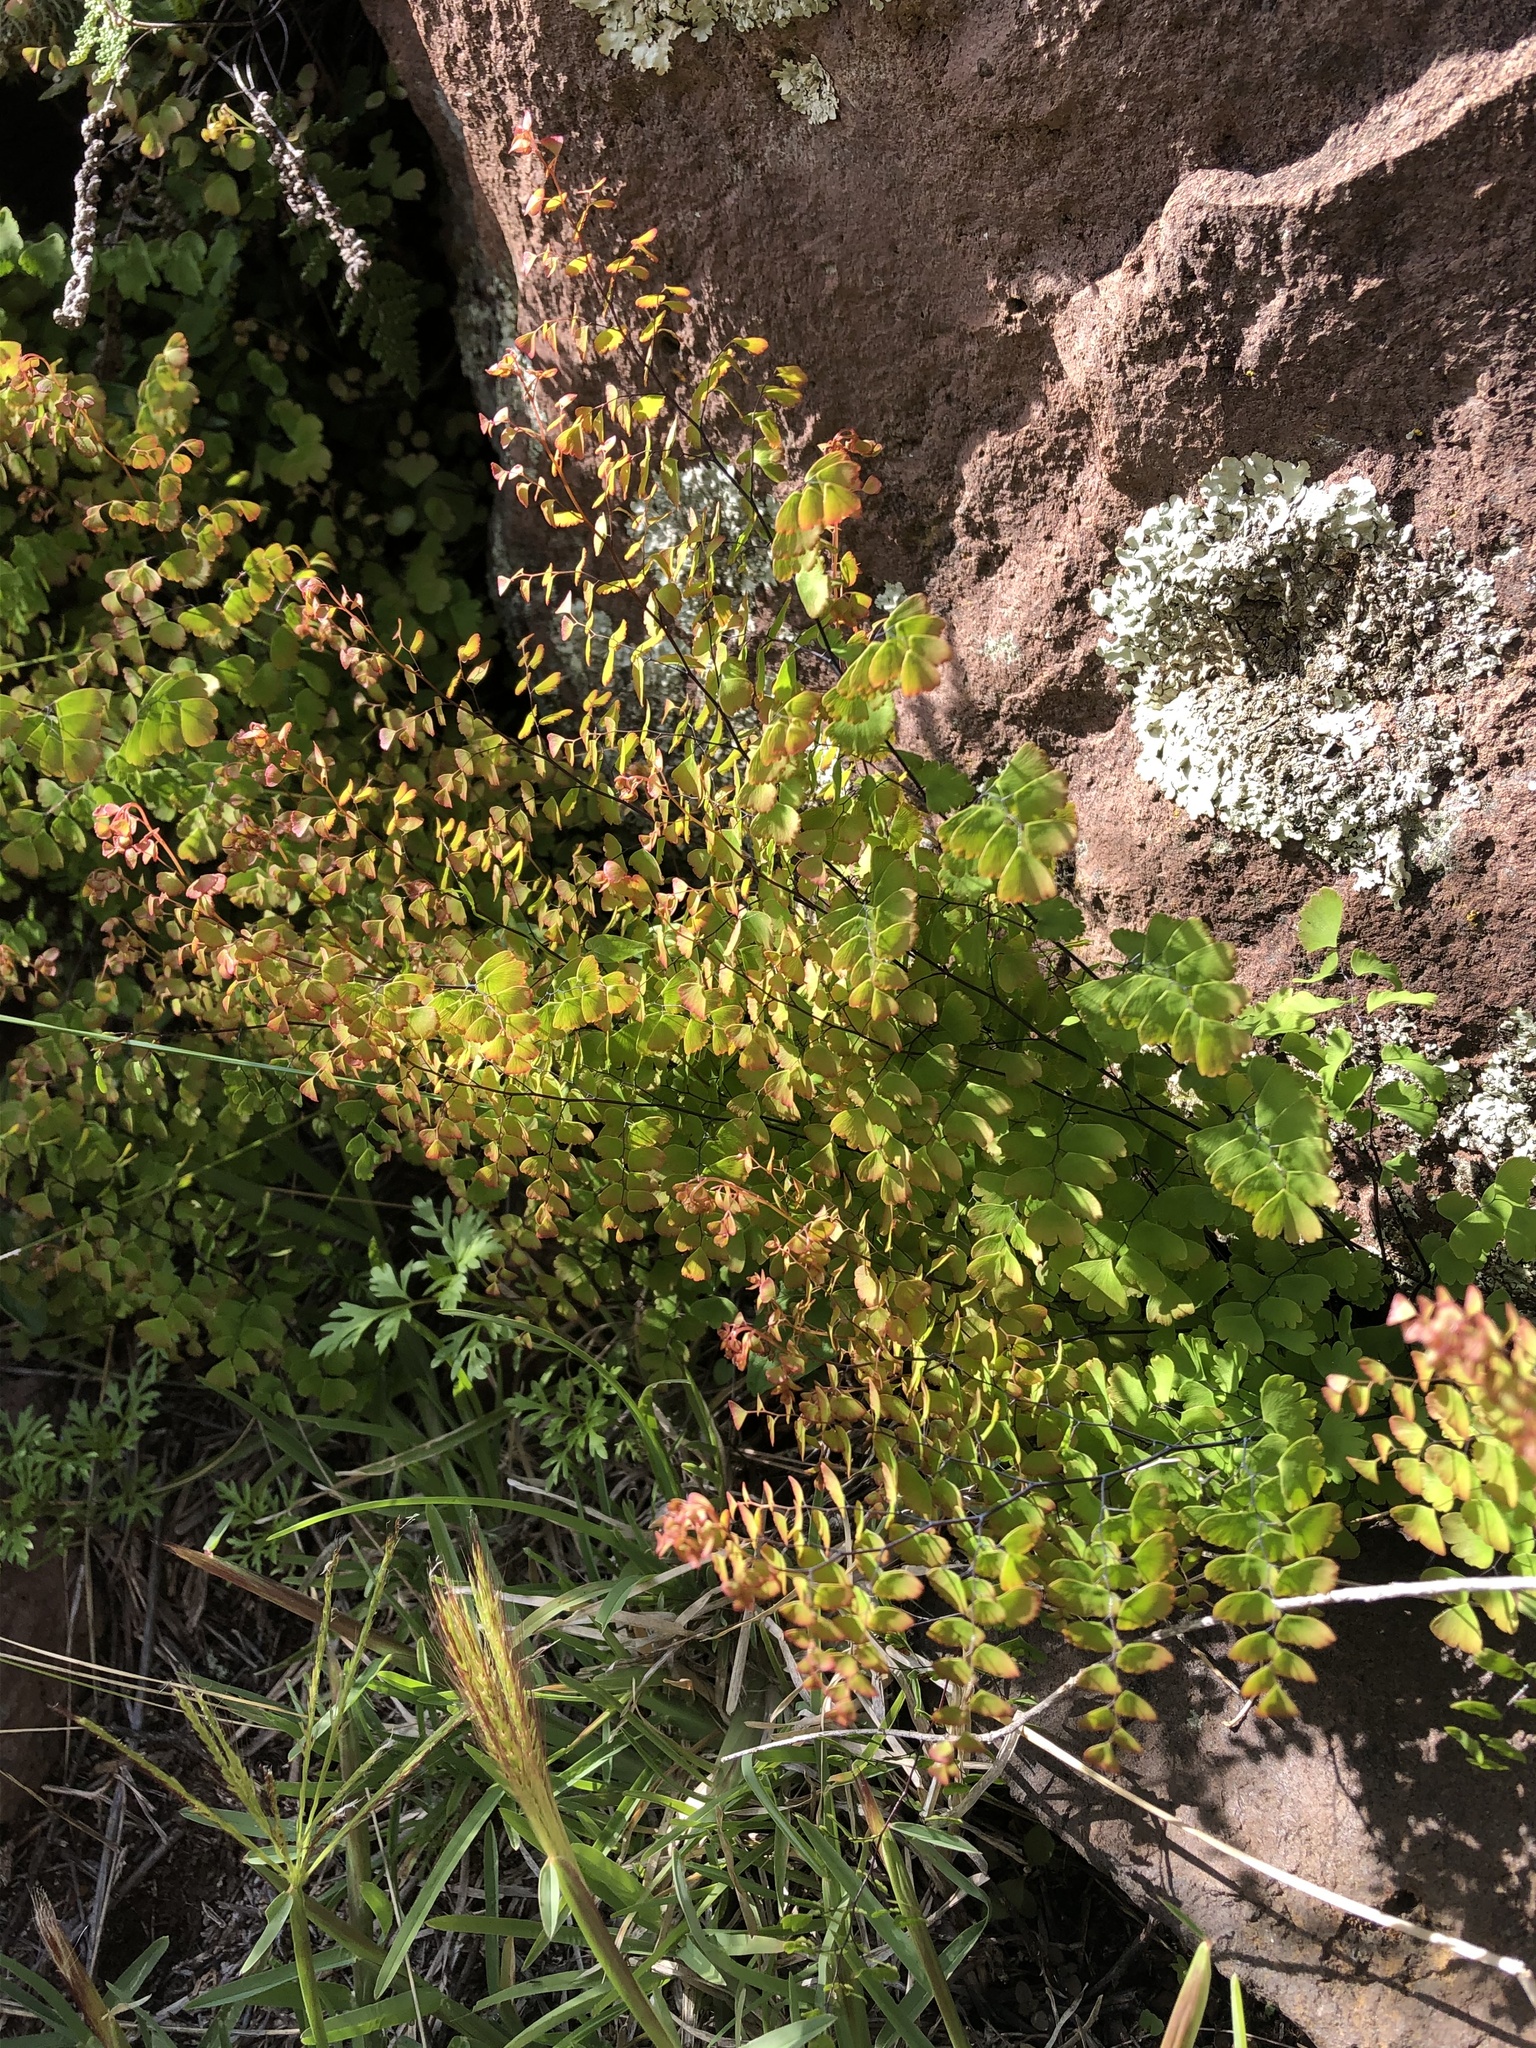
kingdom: Plantae
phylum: Tracheophyta
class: Polypodiopsida
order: Polypodiales
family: Pteridaceae
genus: Adiantum
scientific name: Adiantum orbignyanum
